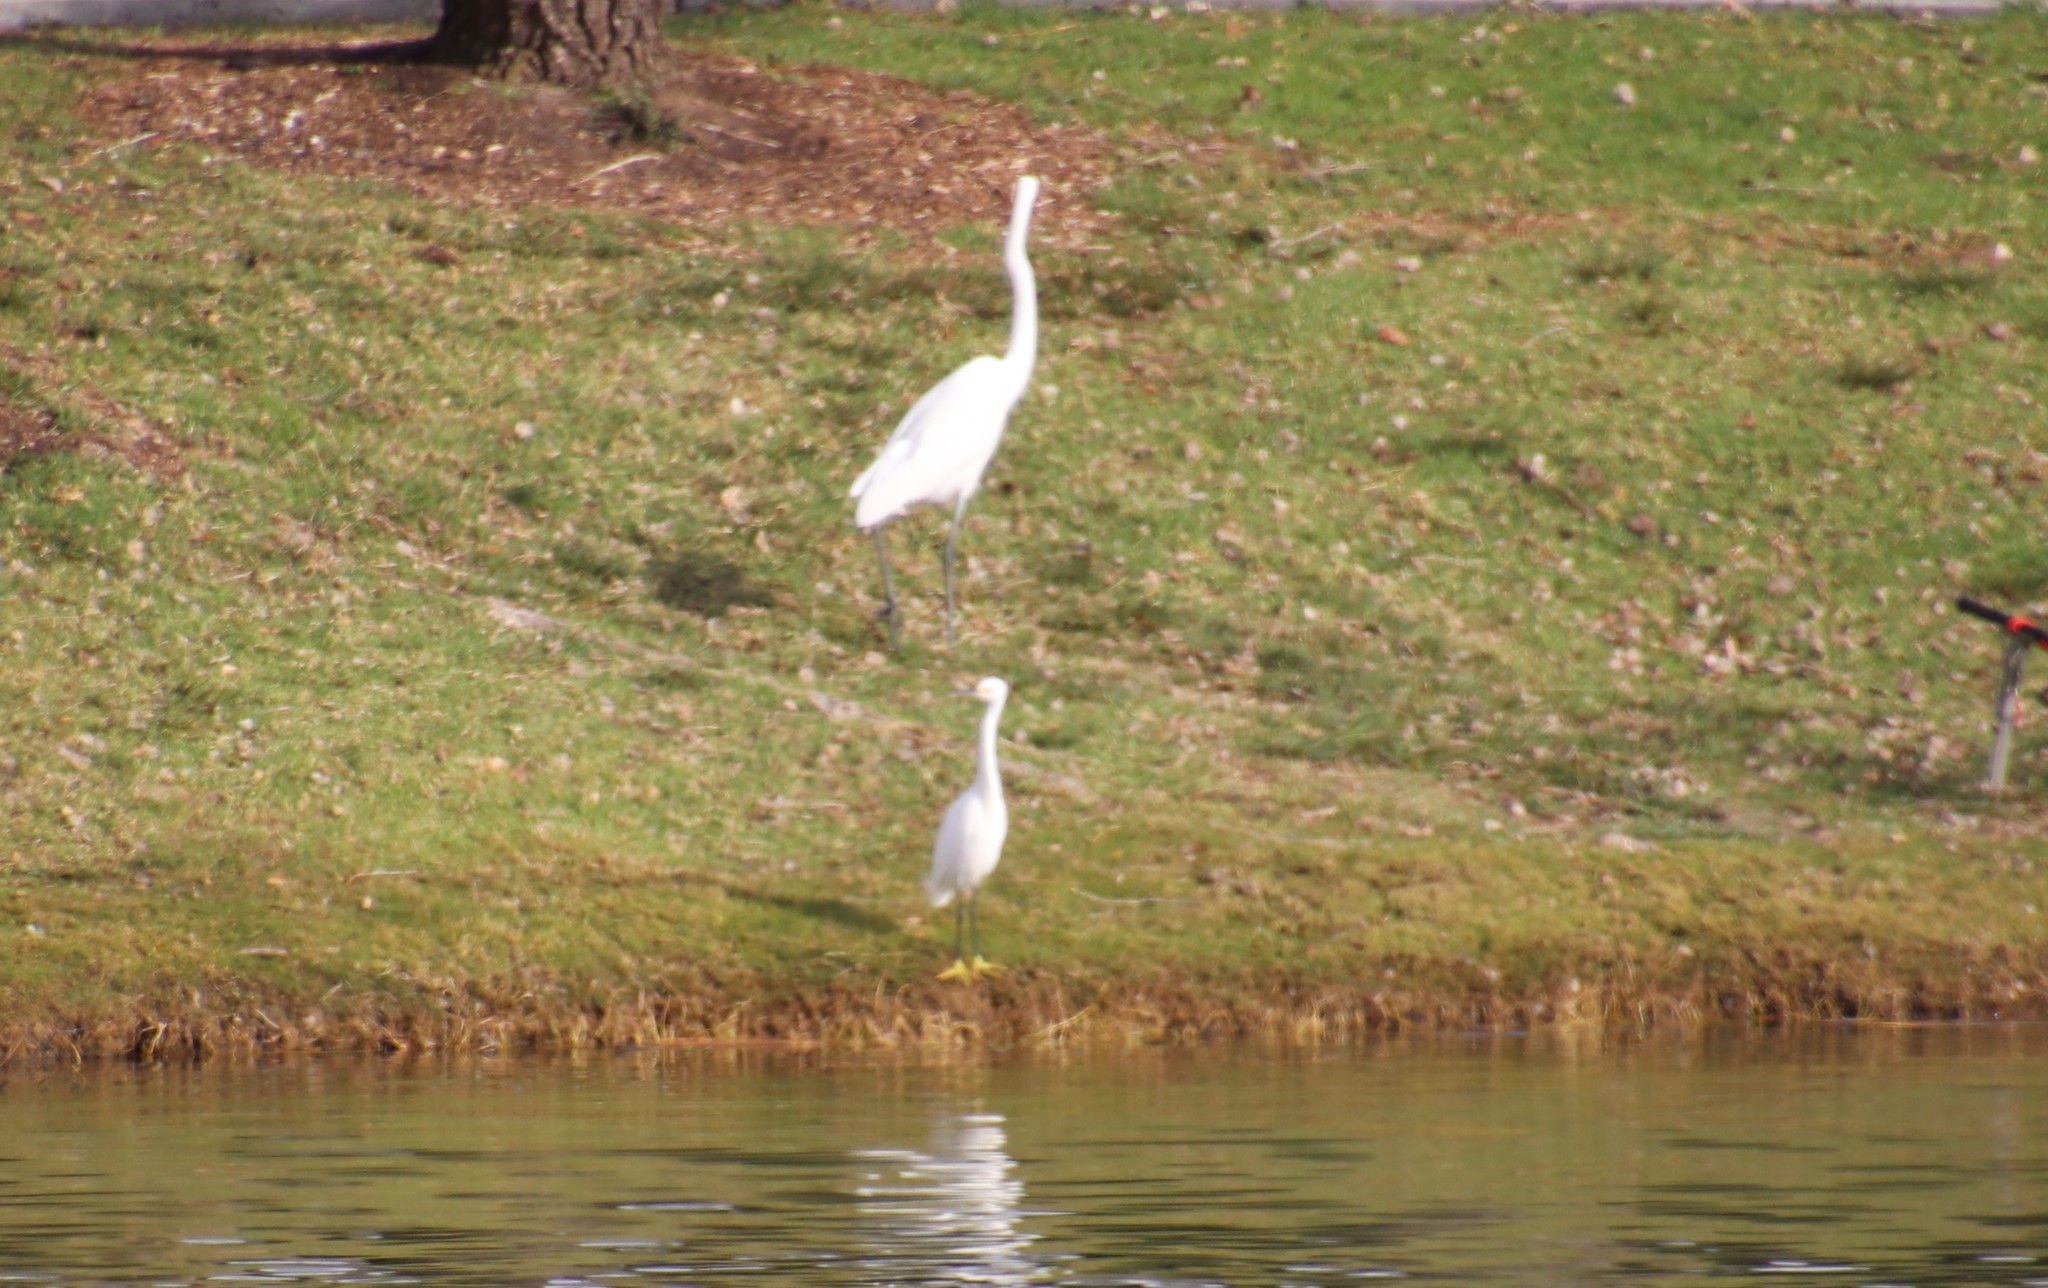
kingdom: Animalia
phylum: Chordata
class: Aves
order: Pelecaniformes
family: Ardeidae
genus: Egretta
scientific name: Egretta thula
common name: Snowy egret
